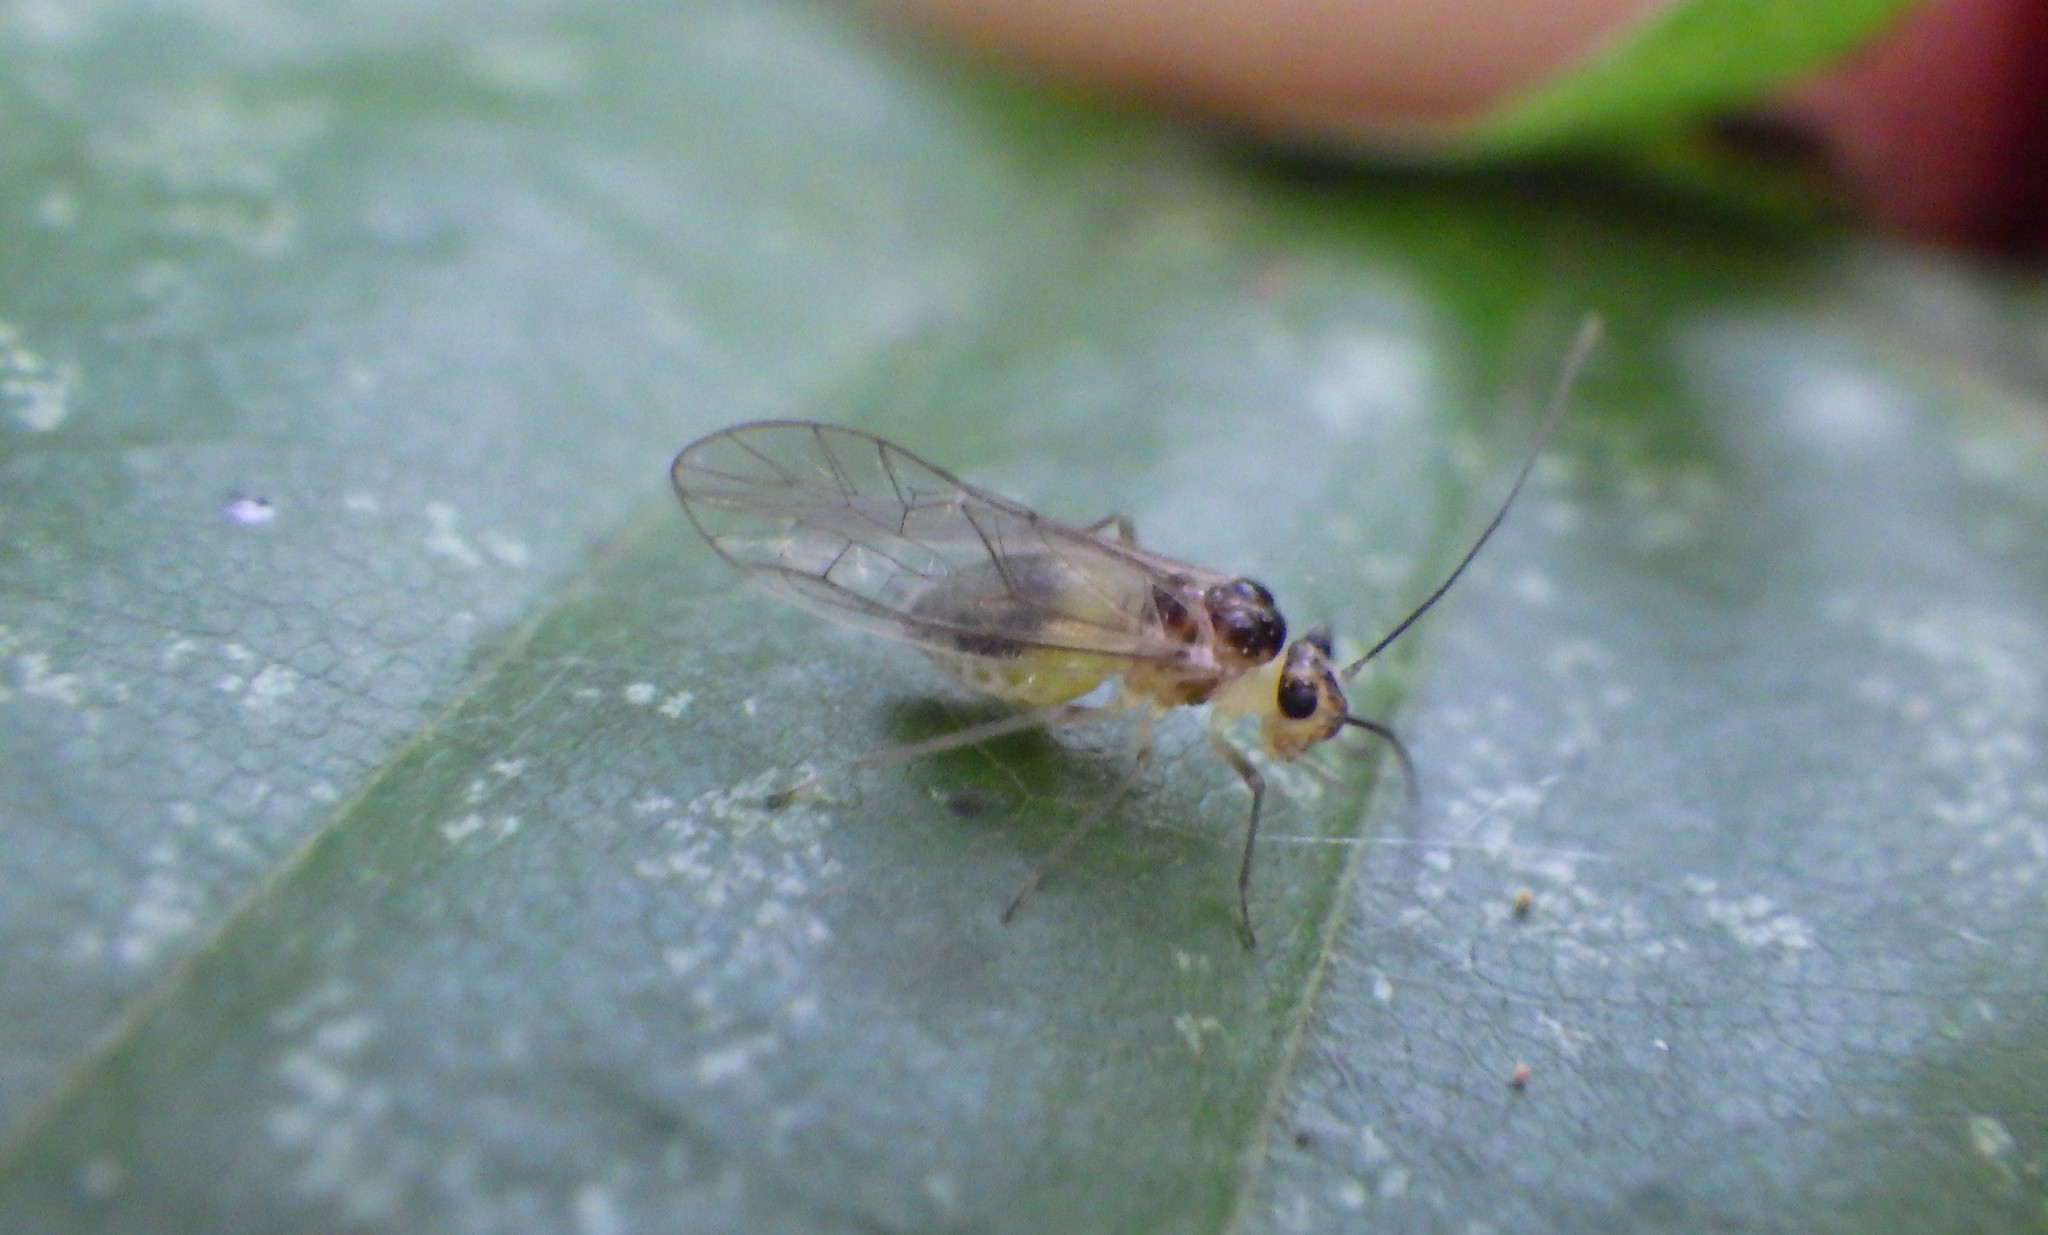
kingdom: Animalia
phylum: Arthropoda
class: Insecta
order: Psocodea
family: Stenopsocidae
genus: Stenopsocus
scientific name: Stenopsocus immaculatus
